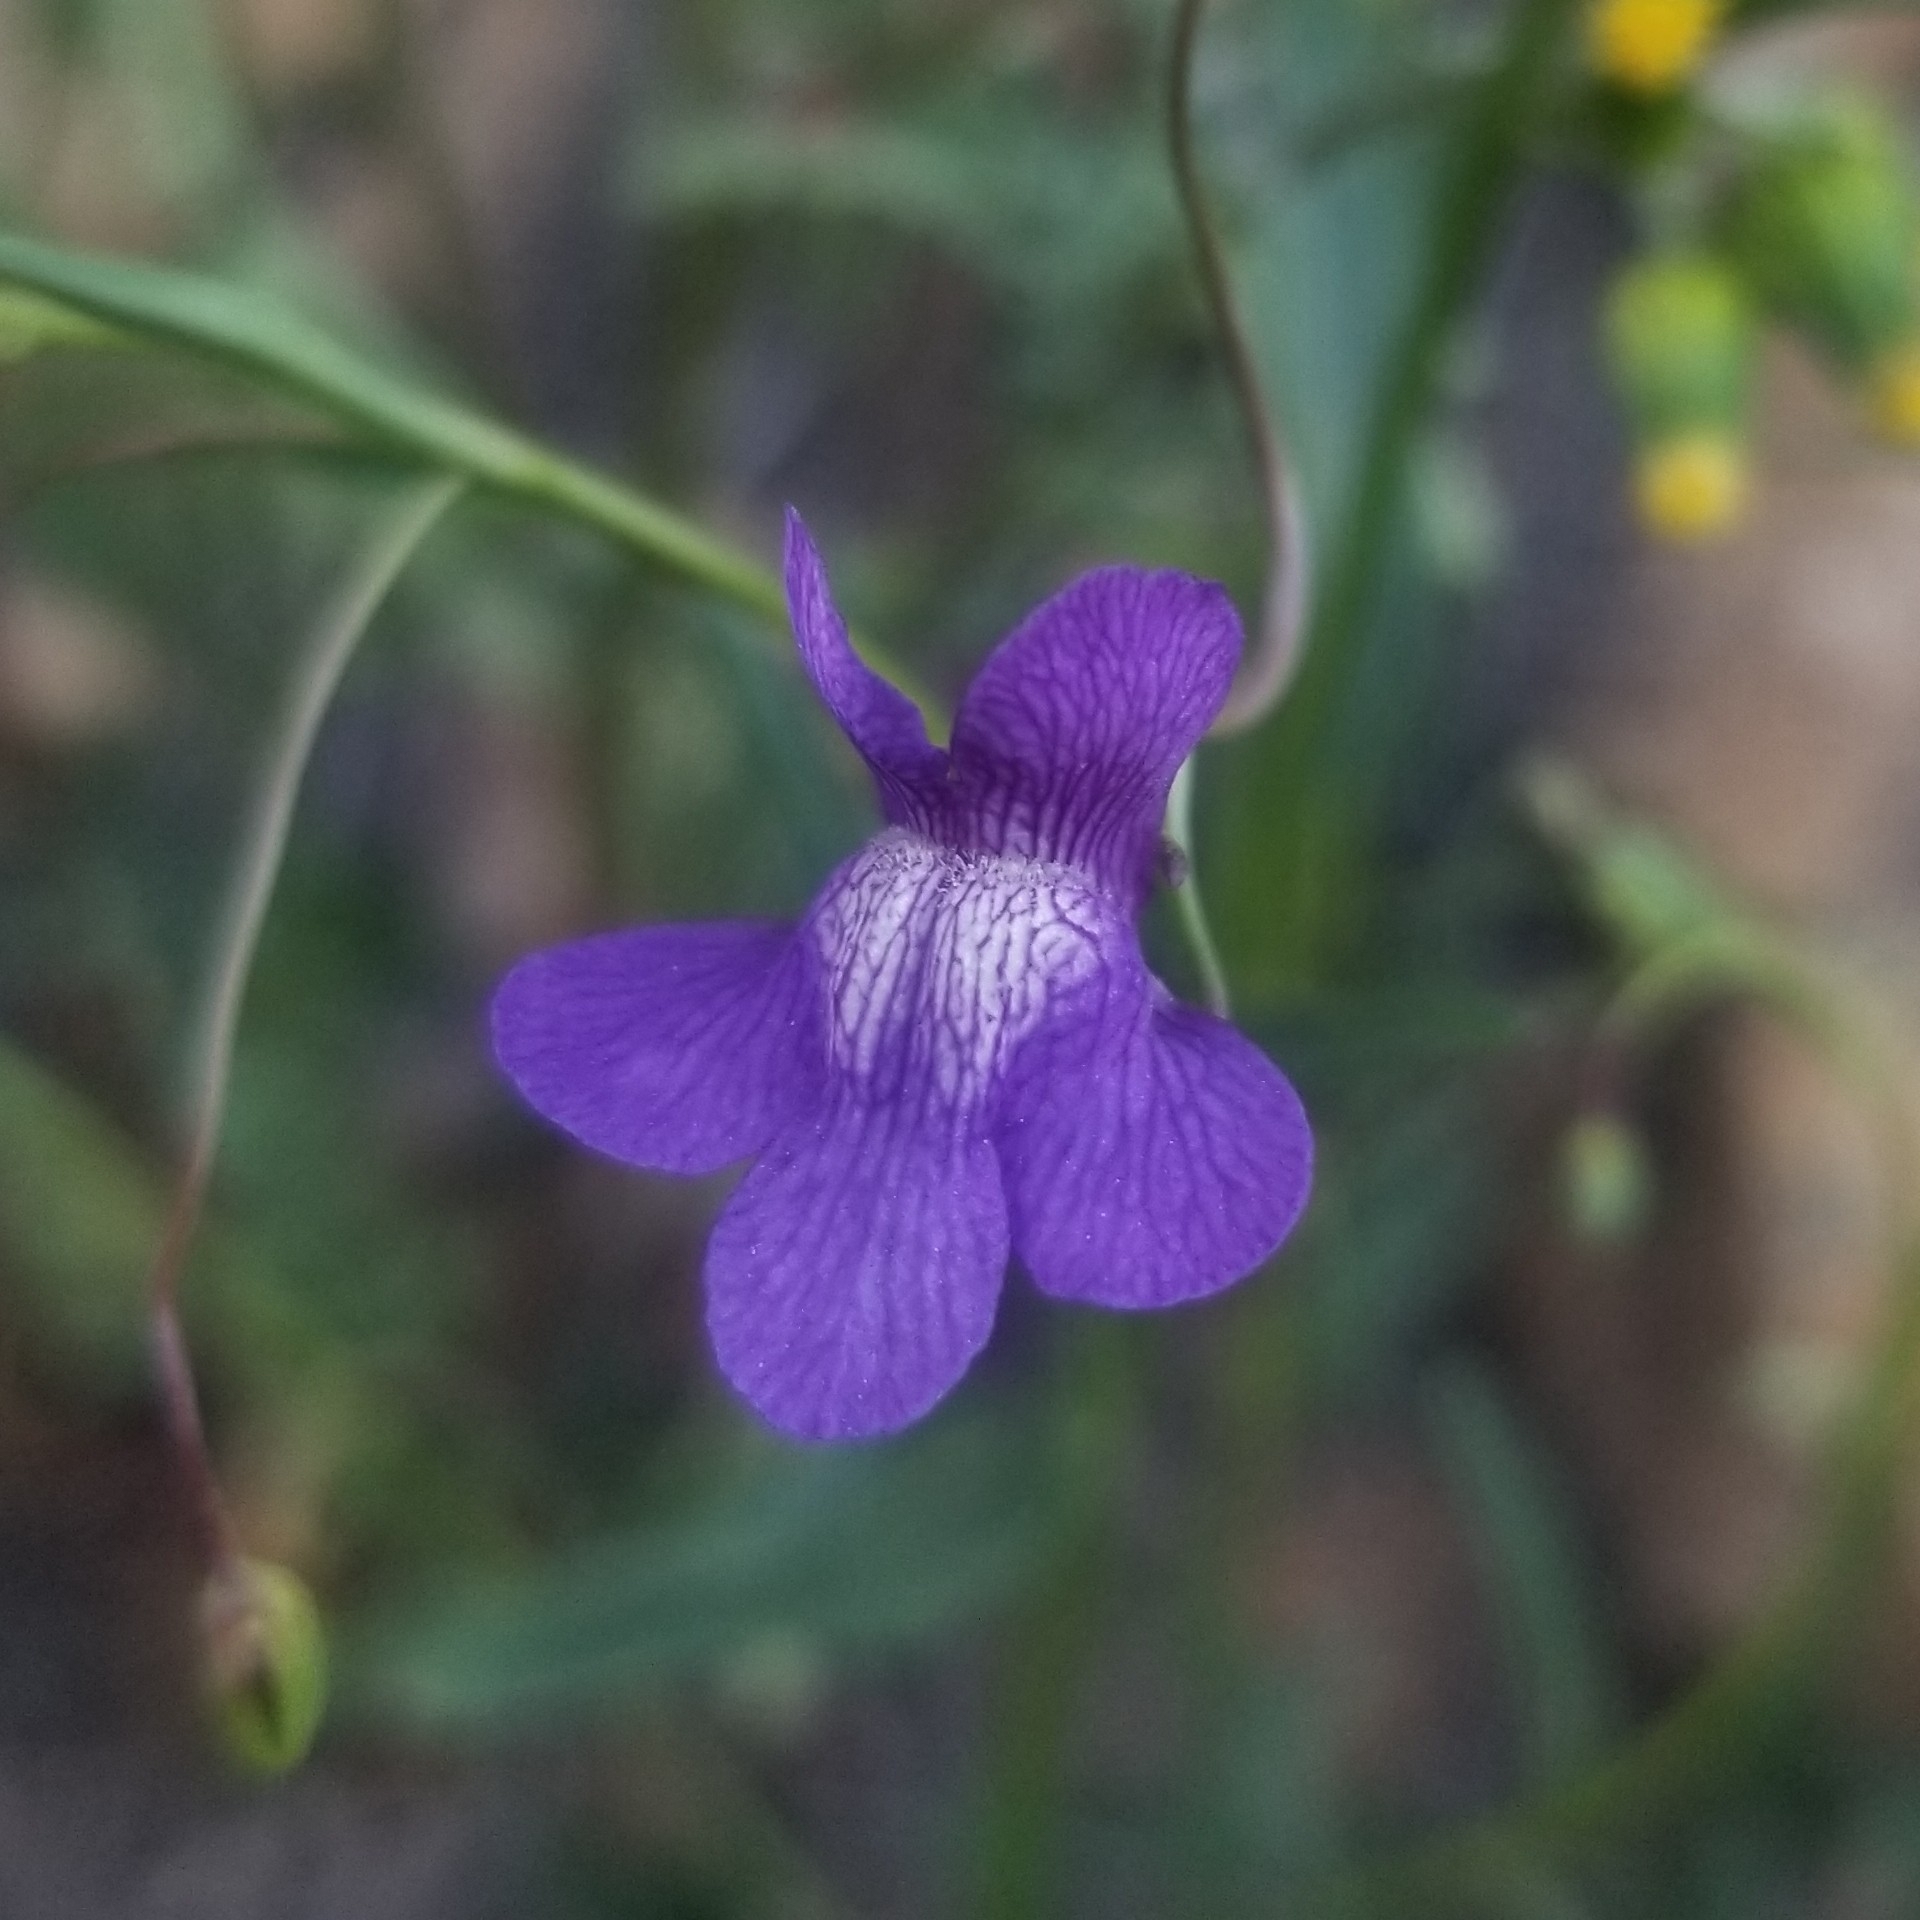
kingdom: Plantae
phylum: Tracheophyta
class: Magnoliopsida
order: Lamiales
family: Plantaginaceae
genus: Neogaerrhinum
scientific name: Neogaerrhinum strictum
